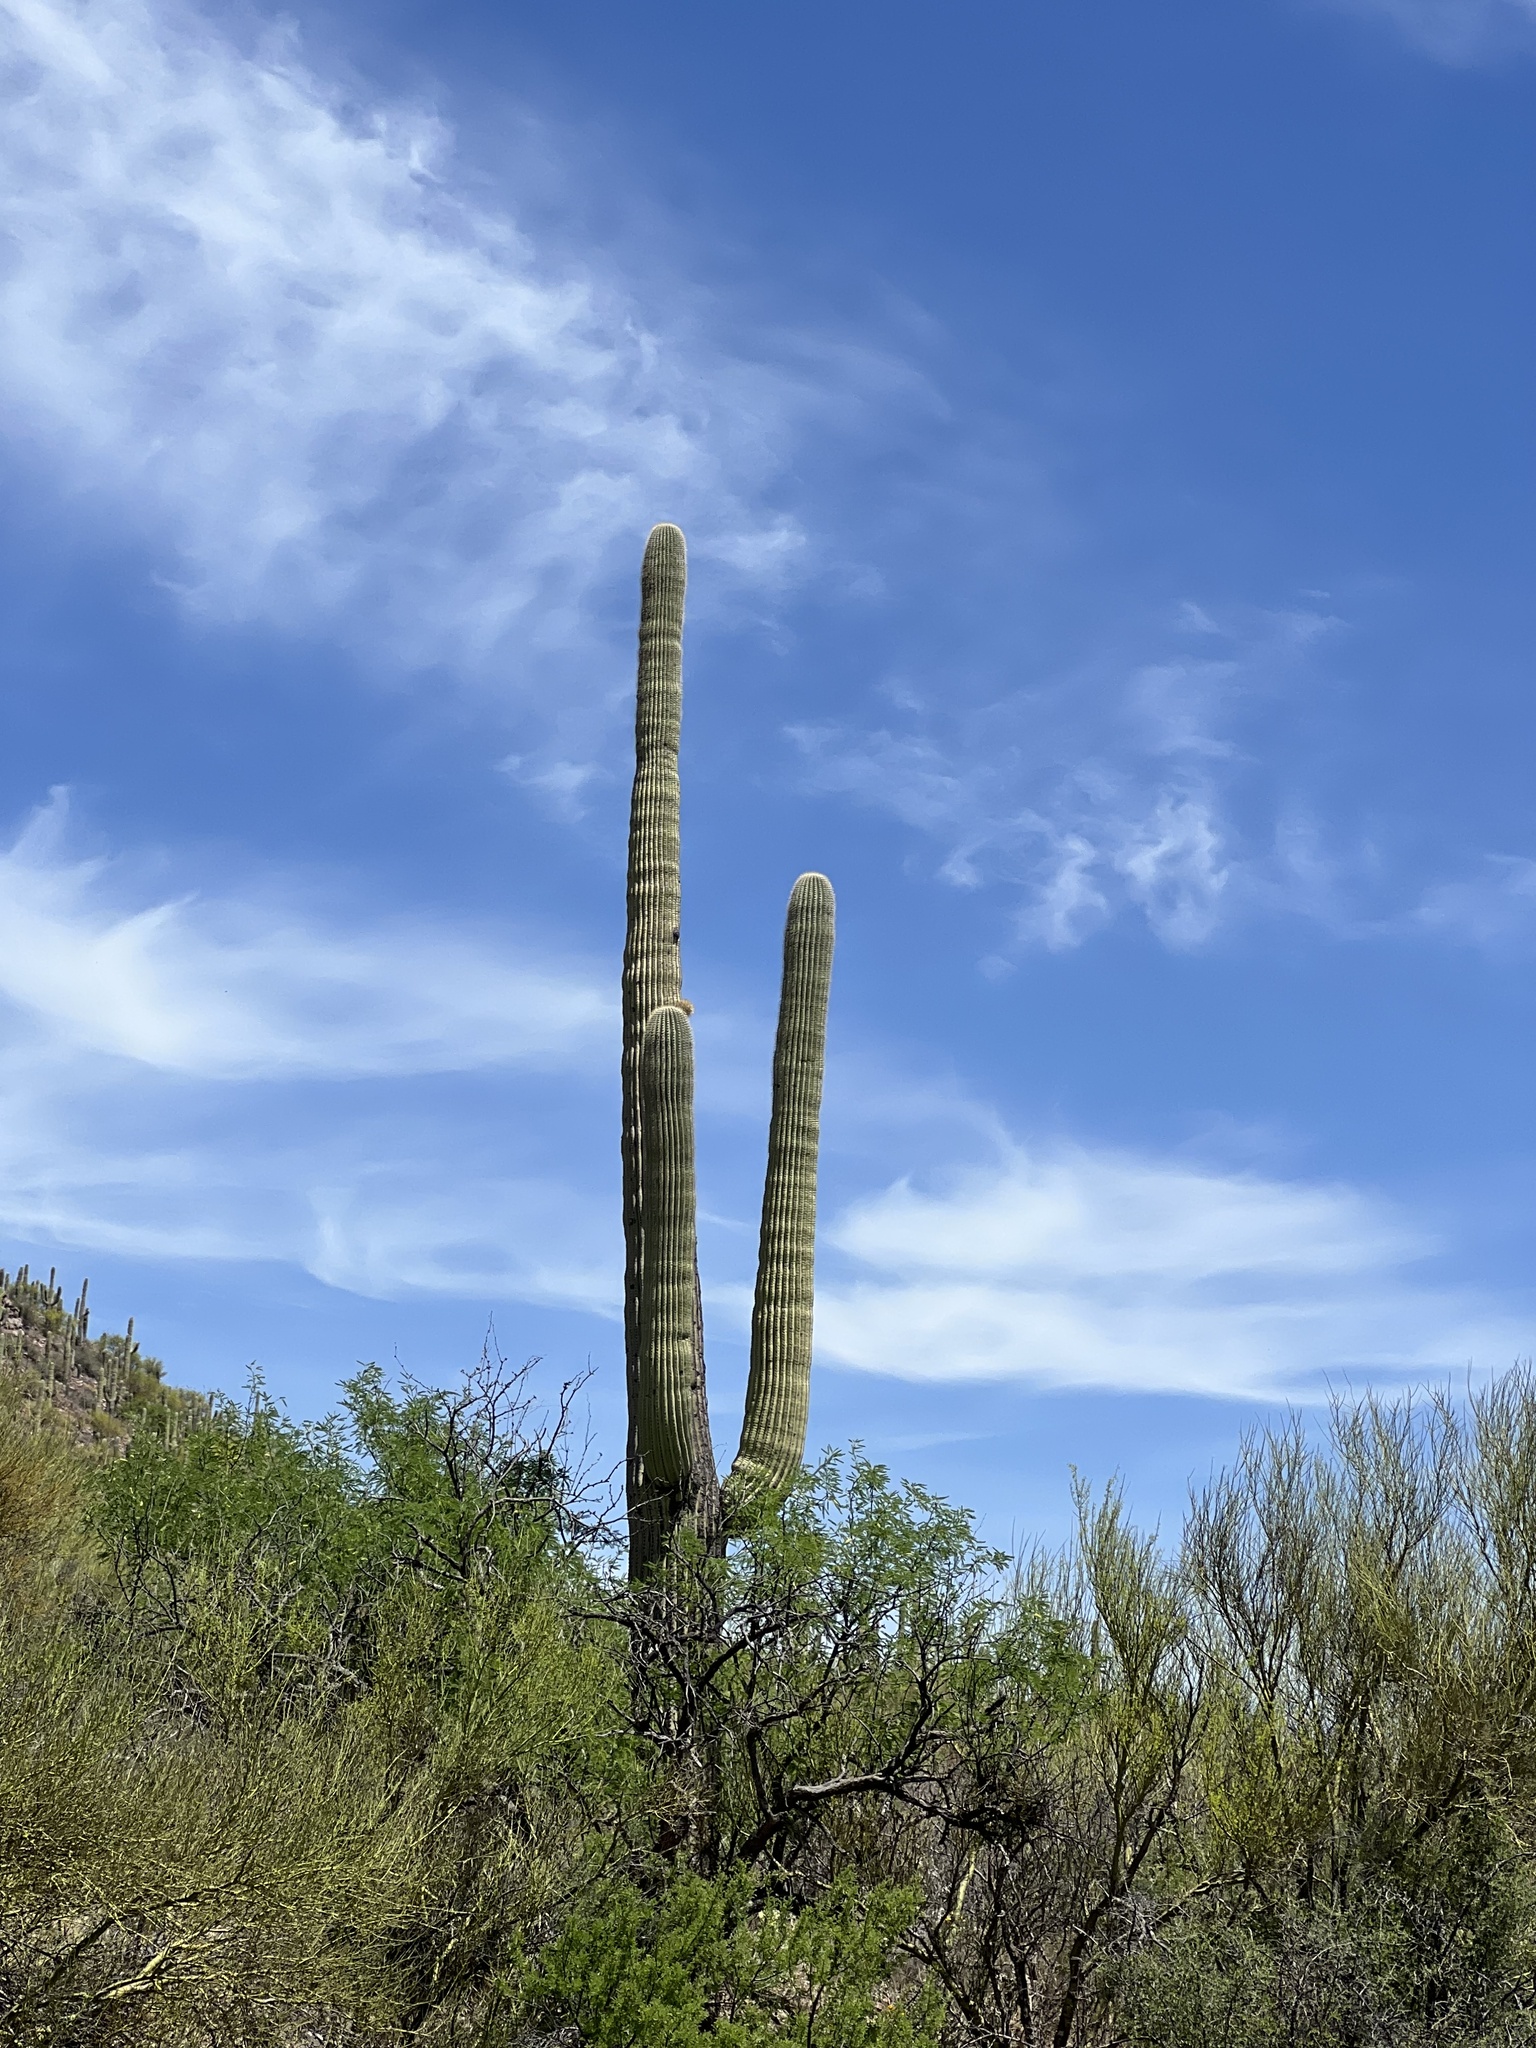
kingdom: Plantae
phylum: Tracheophyta
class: Magnoliopsida
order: Caryophyllales
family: Cactaceae
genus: Carnegiea
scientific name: Carnegiea gigantea
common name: Saguaro
